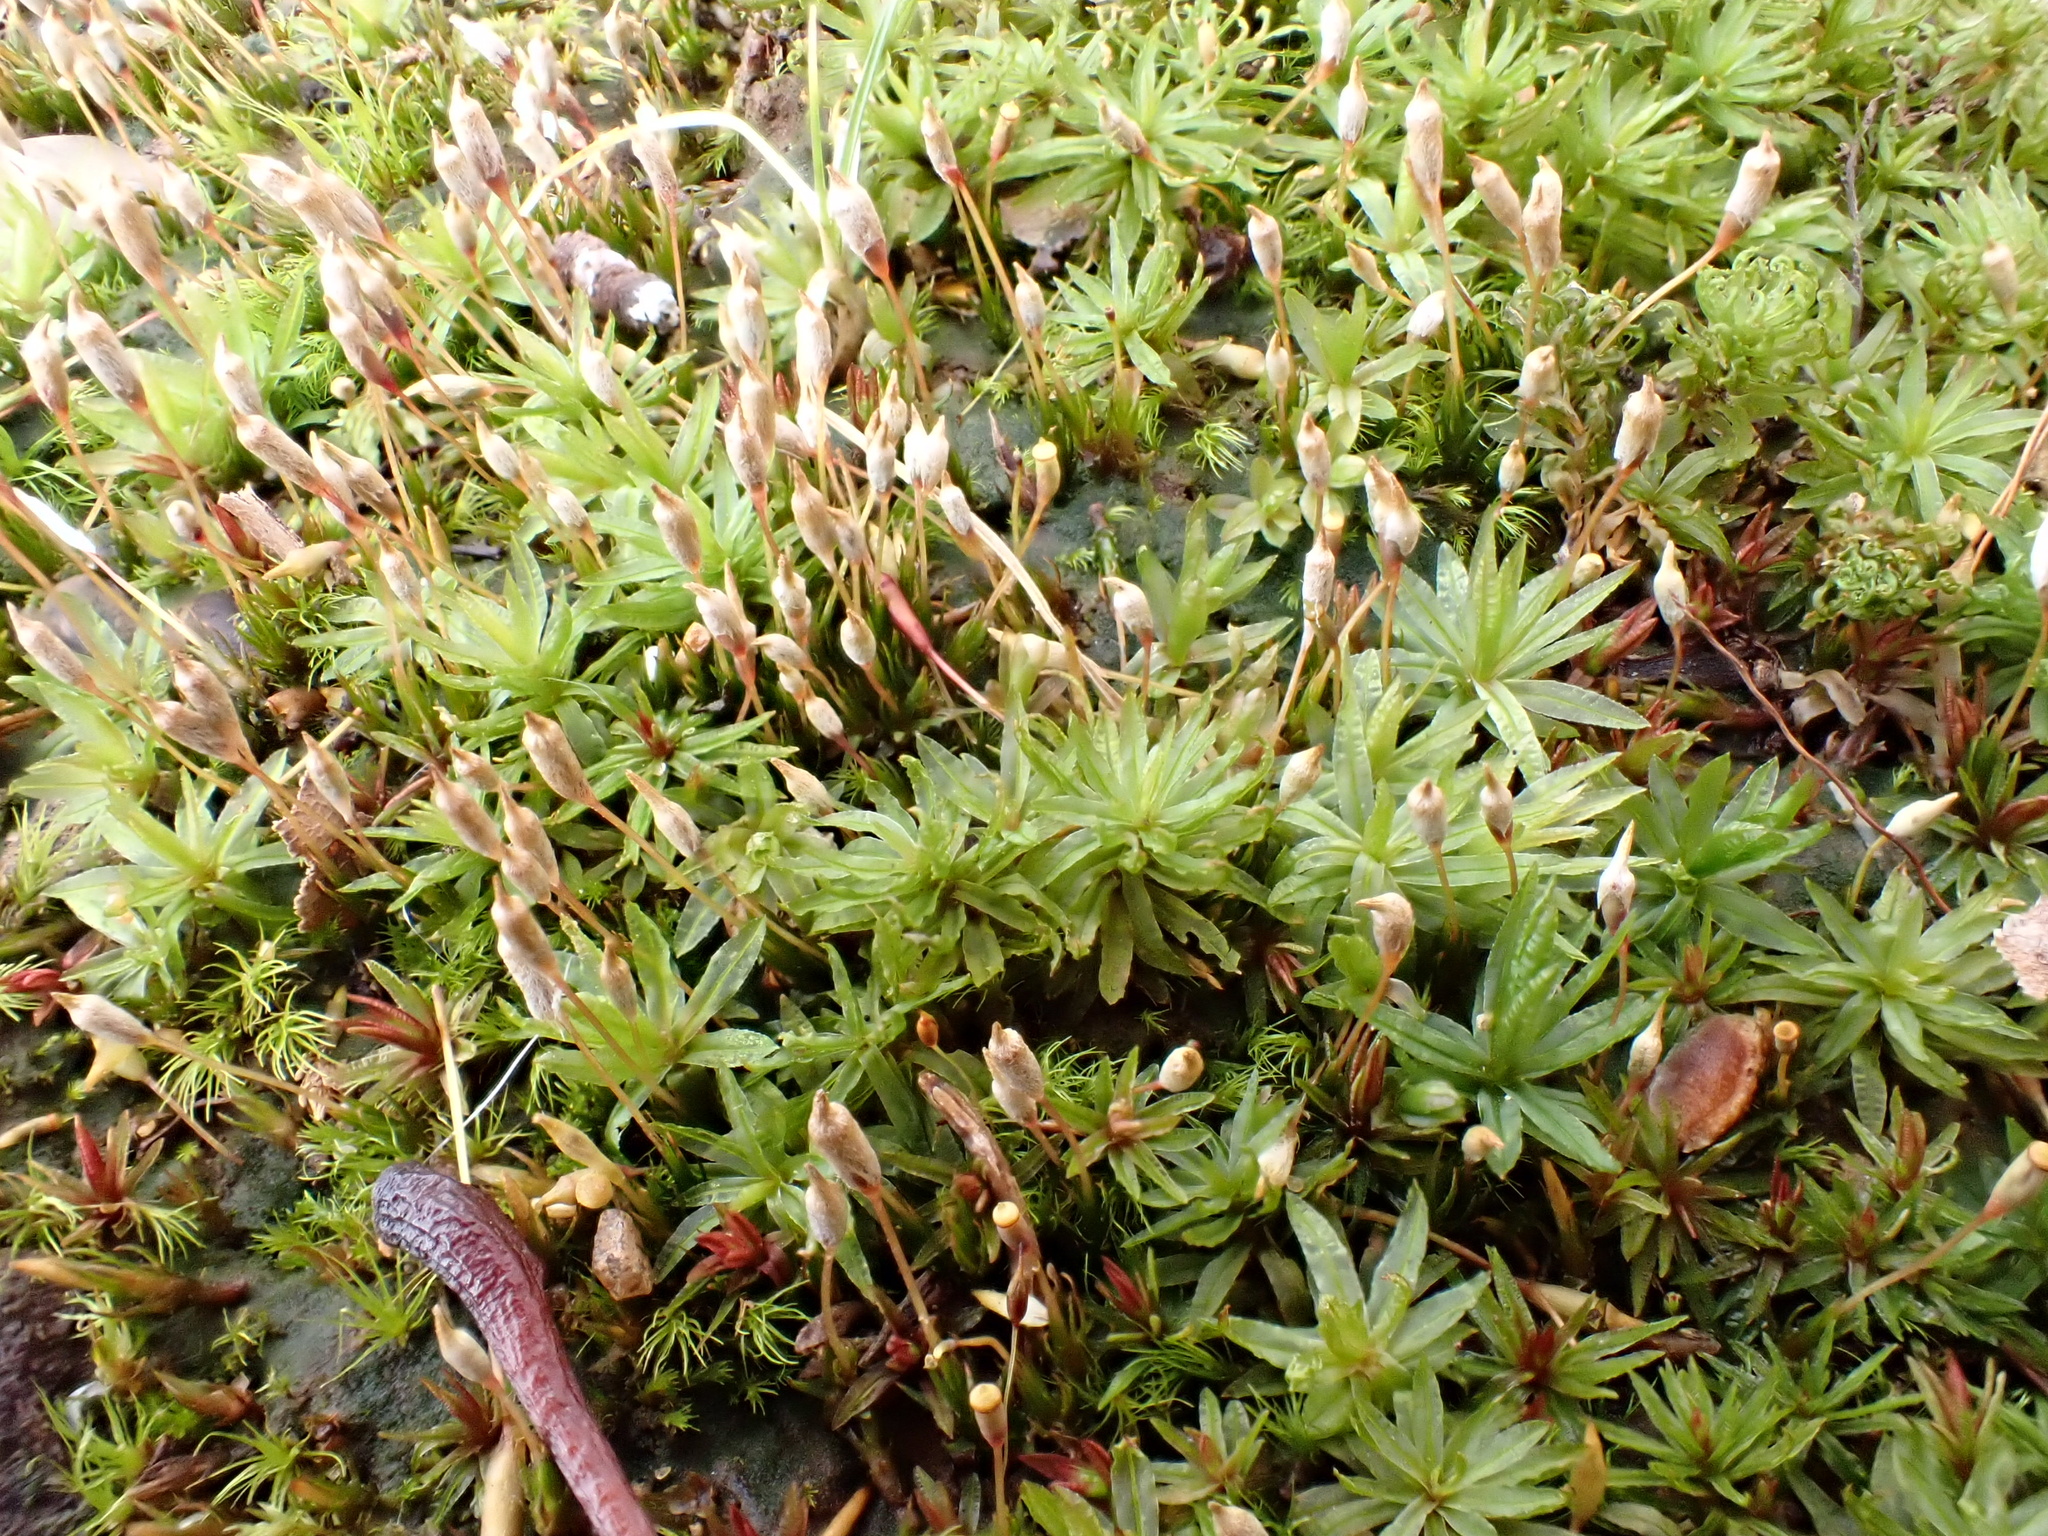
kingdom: Plantae
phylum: Bryophyta
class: Polytrichopsida
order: Polytrichales
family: Polytrichaceae
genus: Atrichum
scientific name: Atrichum undulatum
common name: Common smoothcap
